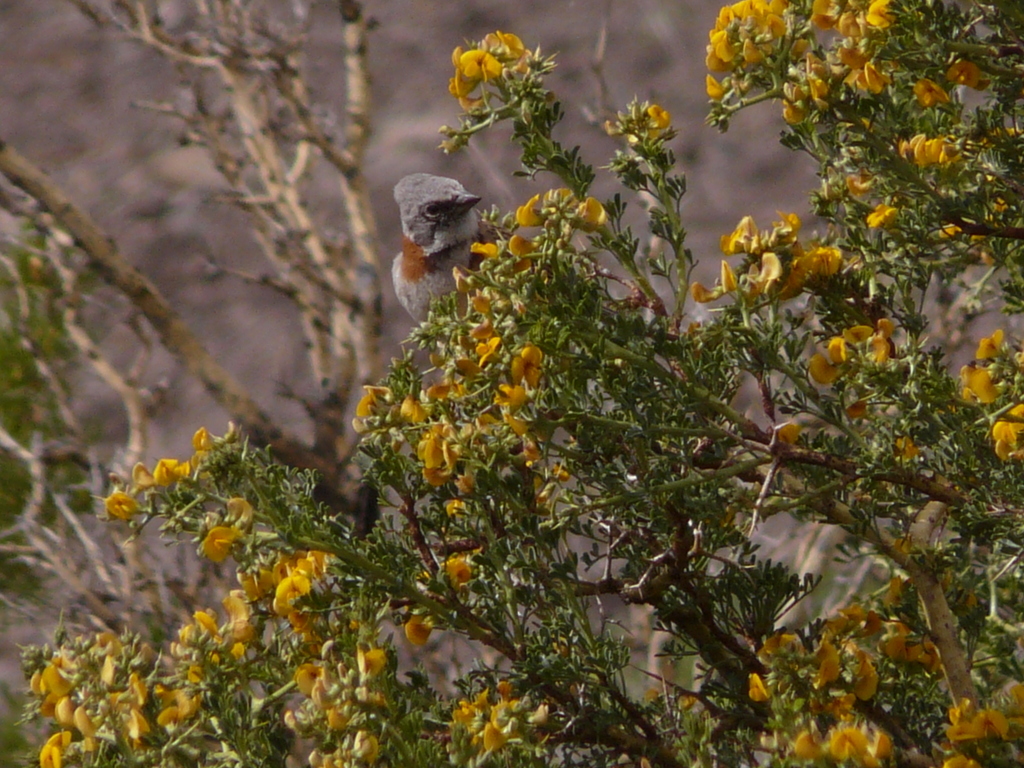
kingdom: Animalia
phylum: Chordata
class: Aves
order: Passeriformes
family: Passerellidae
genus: Zonotrichia
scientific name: Zonotrichia capensis
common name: Rufous-collared sparrow
